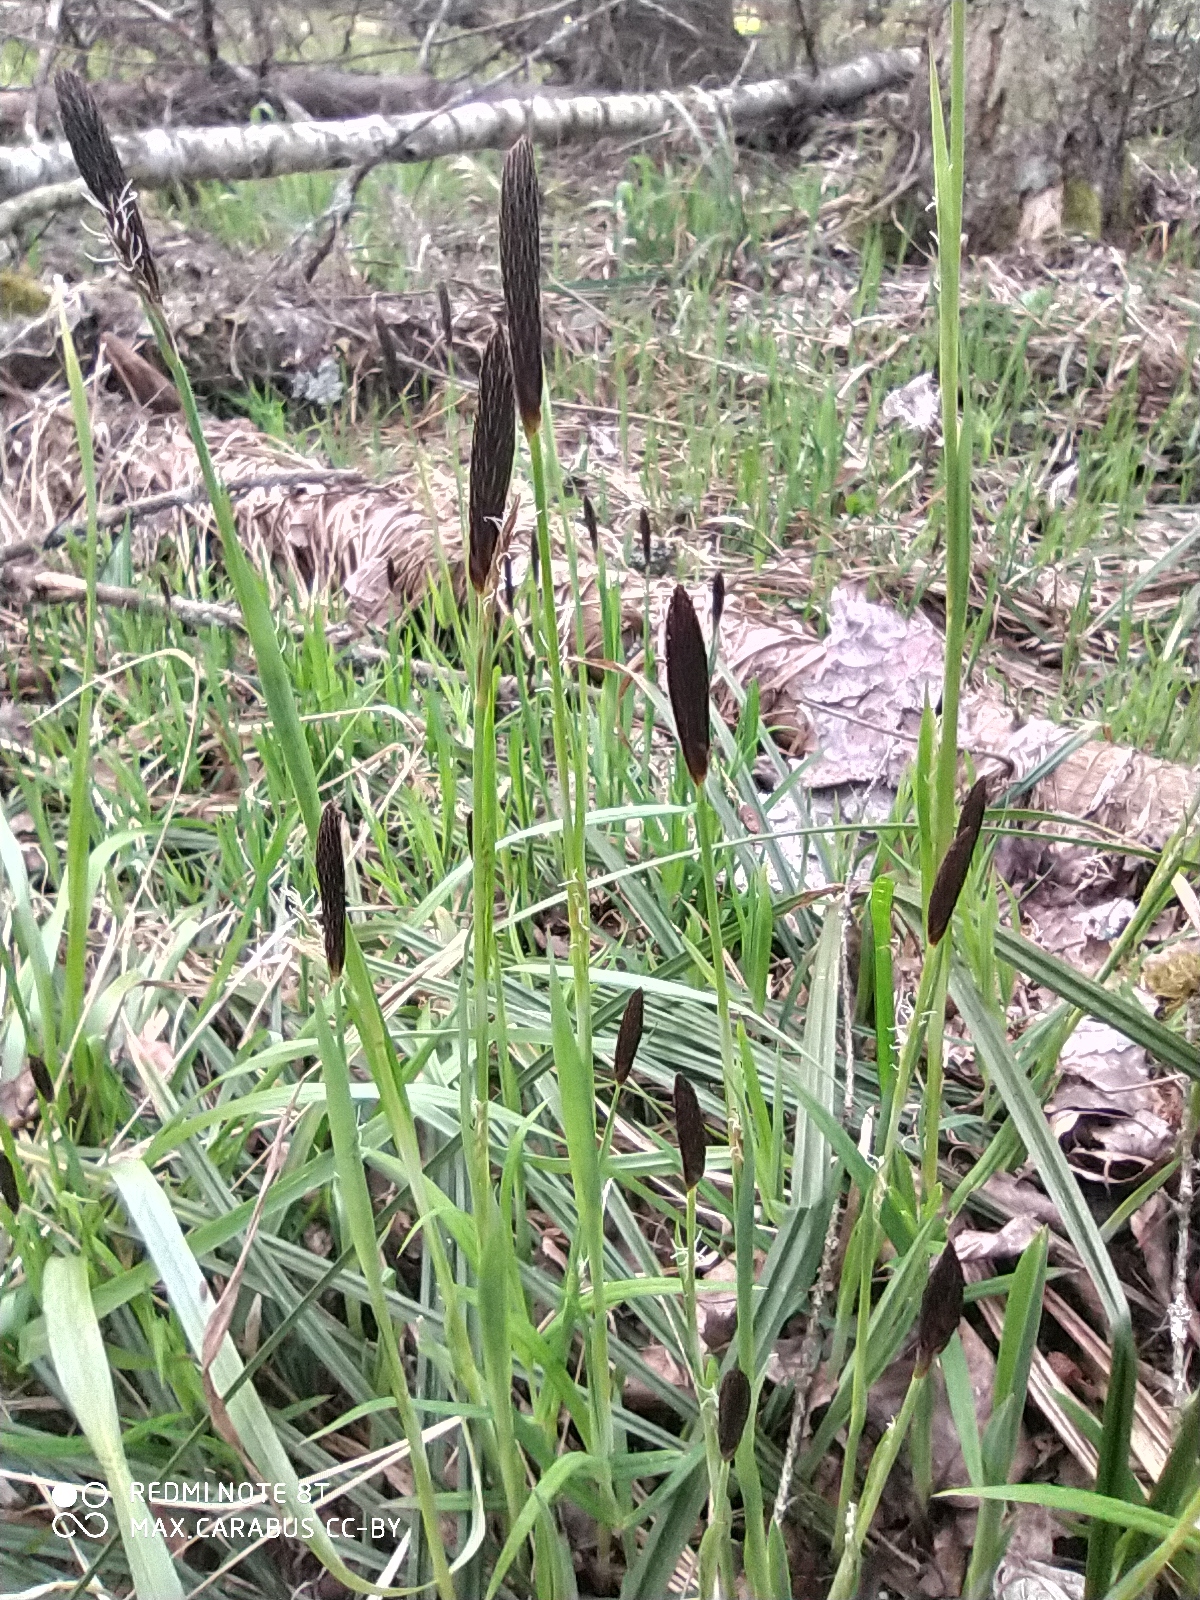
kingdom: Plantae
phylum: Tracheophyta
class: Liliopsida
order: Poales
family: Cyperaceae
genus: Carex
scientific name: Carex pilosa
